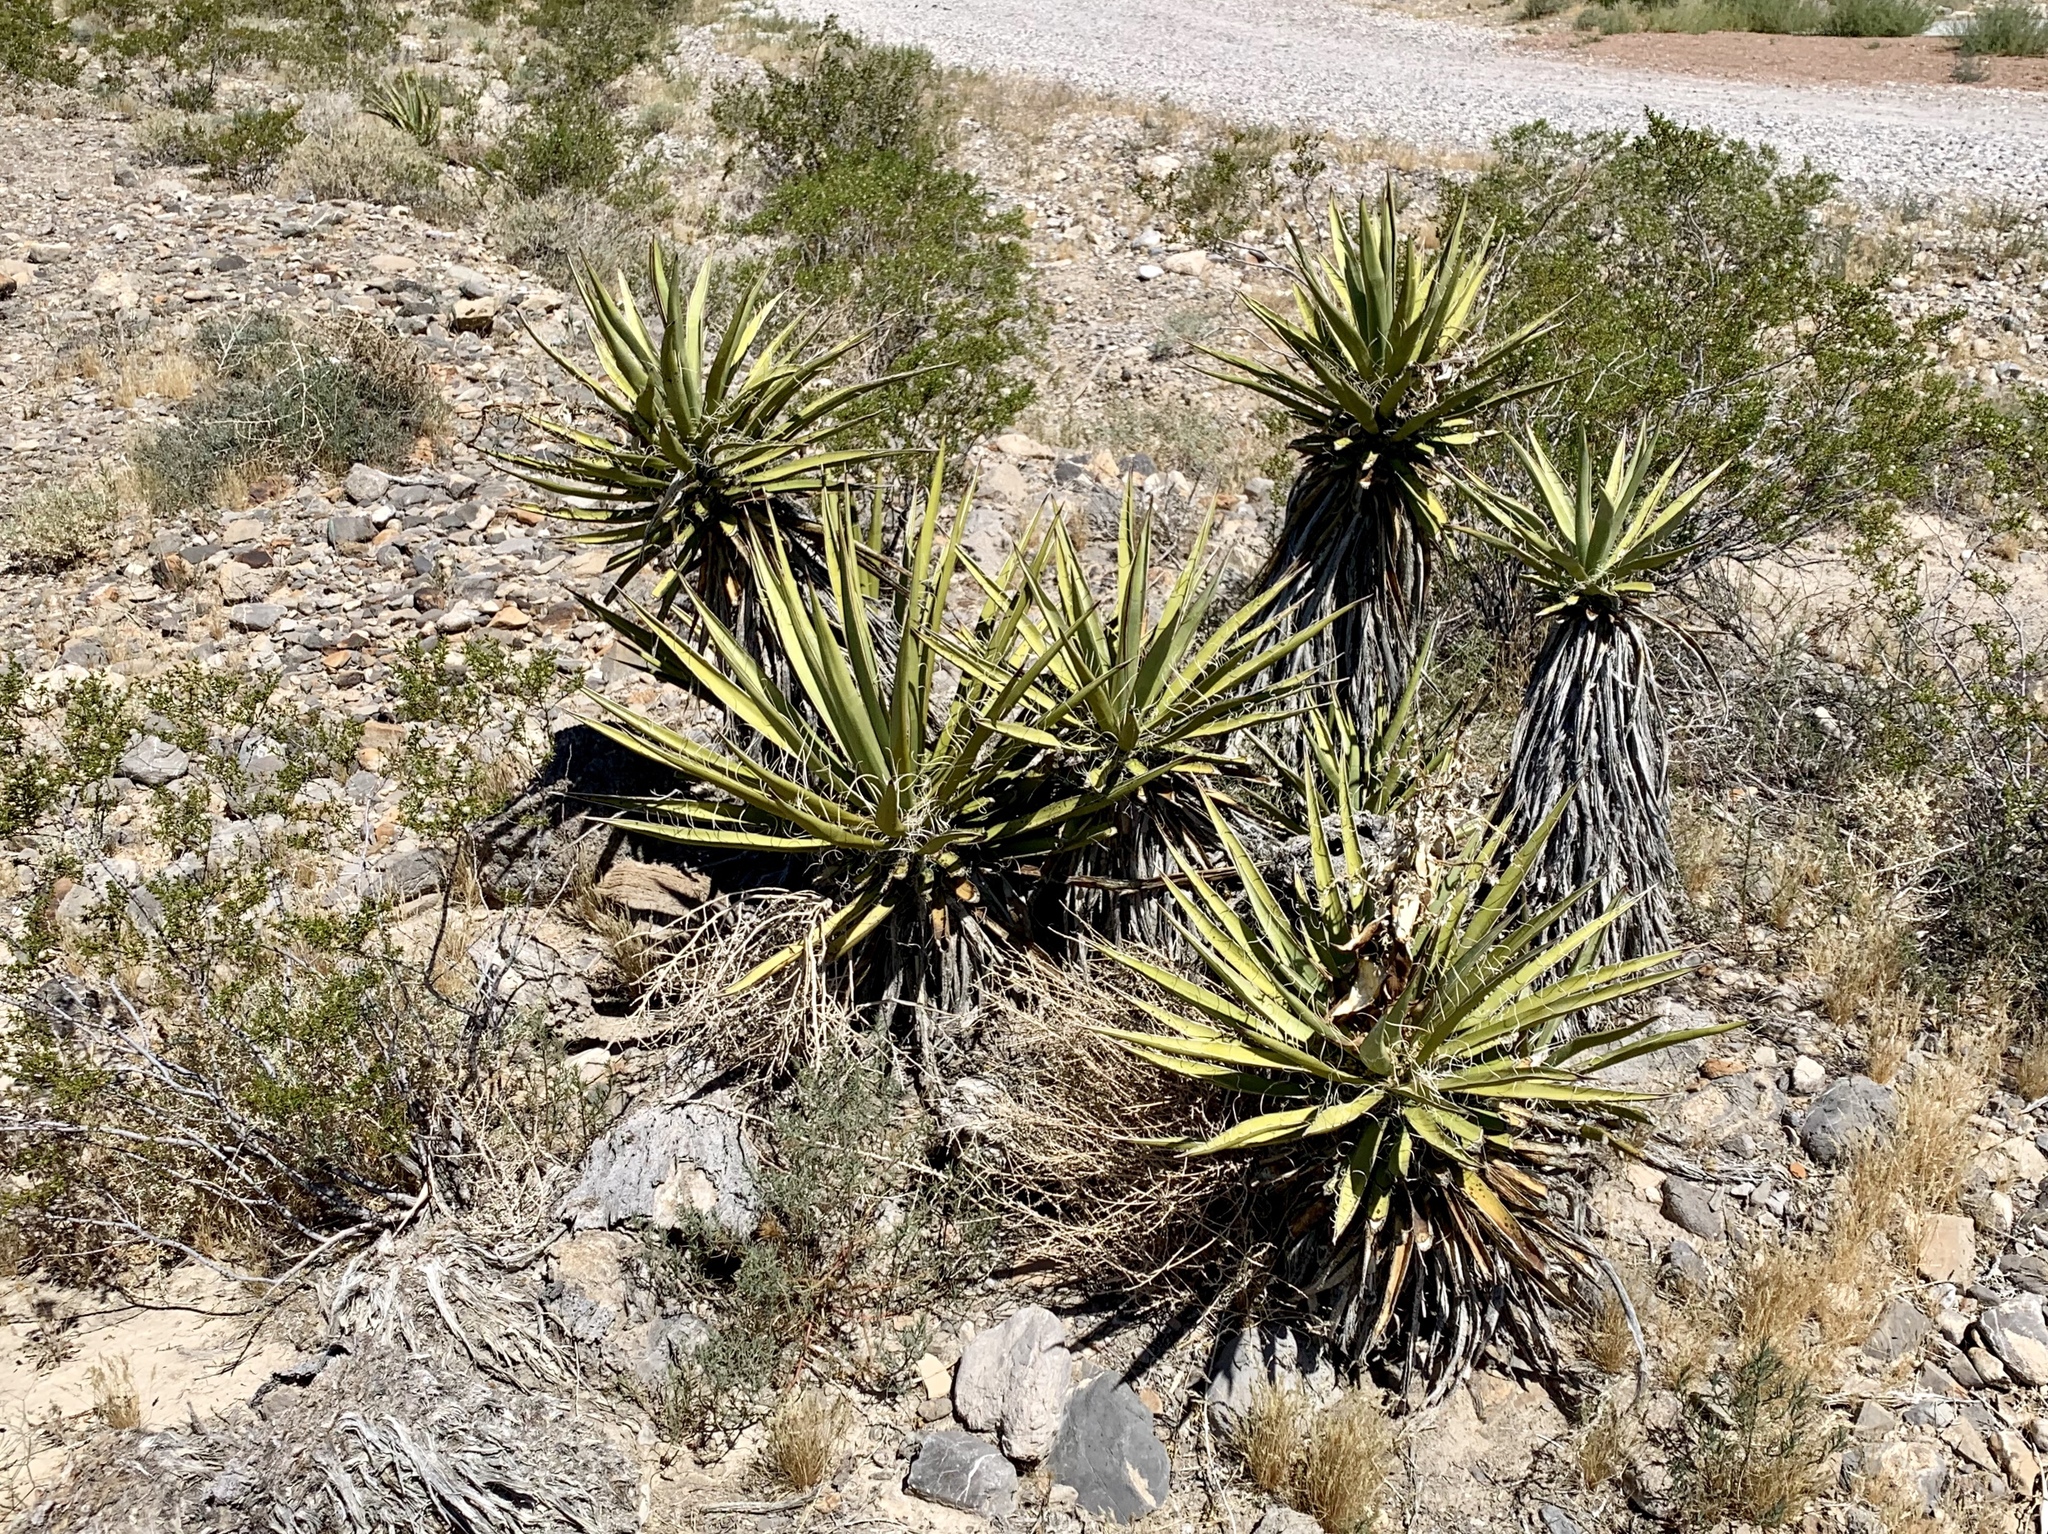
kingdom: Plantae
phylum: Tracheophyta
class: Liliopsida
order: Asparagales
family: Asparagaceae
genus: Yucca
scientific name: Yucca schidigera
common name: Mojave yucca
